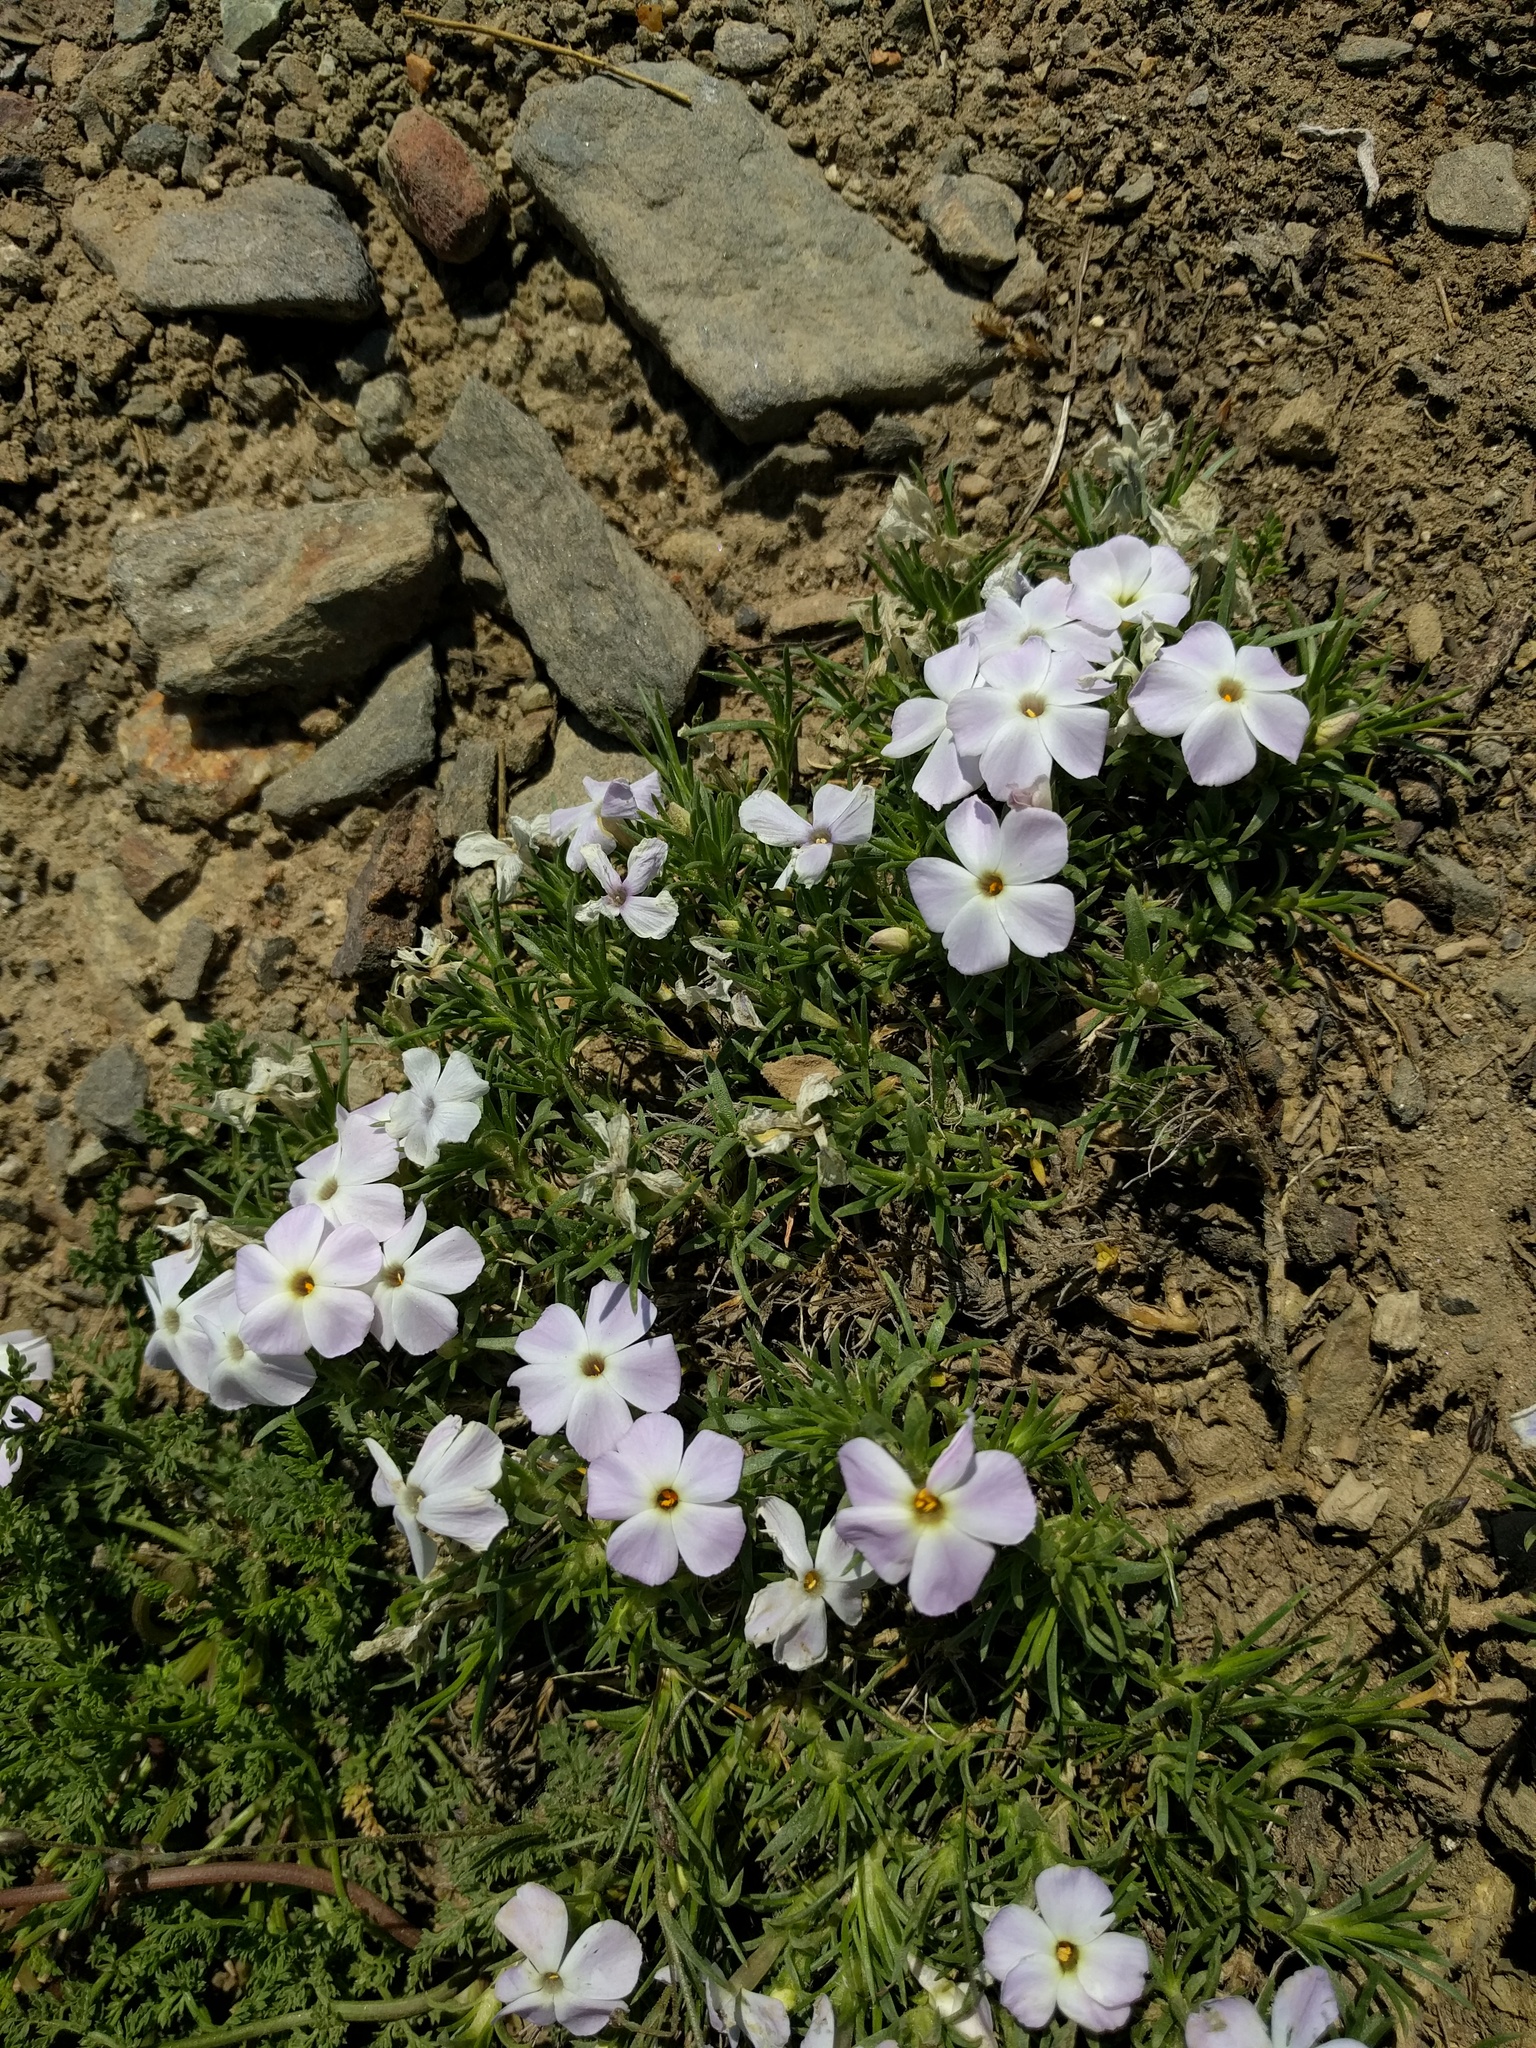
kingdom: Plantae
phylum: Tracheophyta
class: Magnoliopsida
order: Ericales
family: Polemoniaceae
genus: Phlox
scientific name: Phlox diffusa
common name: Mat phlox
